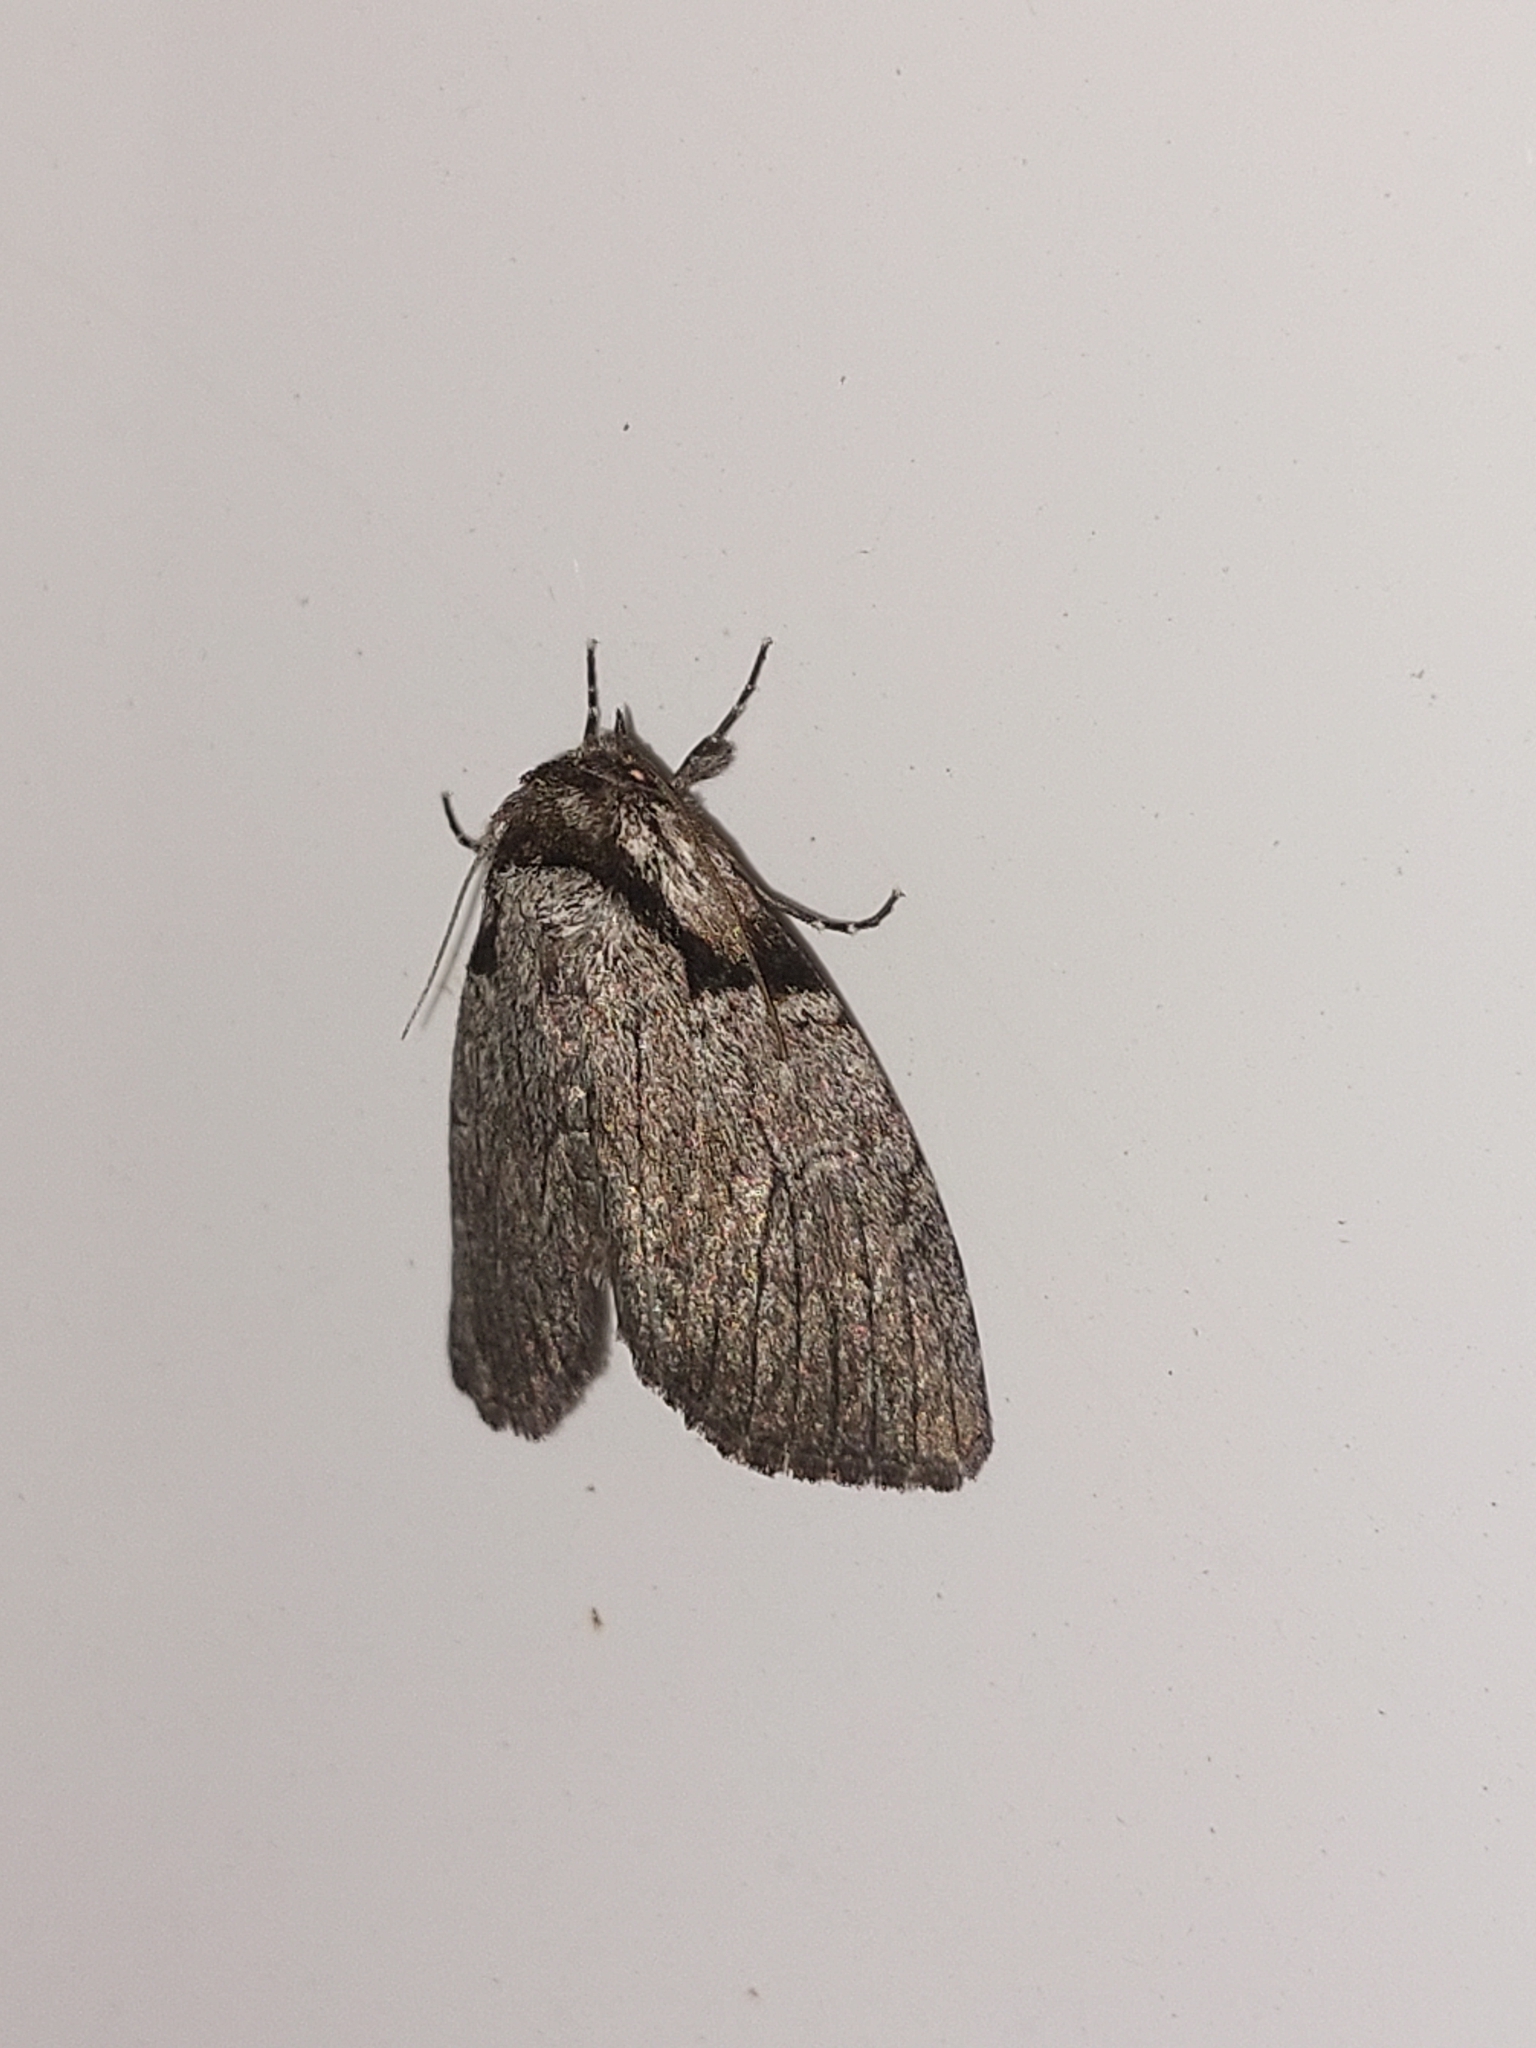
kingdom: Animalia
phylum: Arthropoda
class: Insecta
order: Lepidoptera
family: Noctuidae
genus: Procrateria
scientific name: Procrateria basifascia
